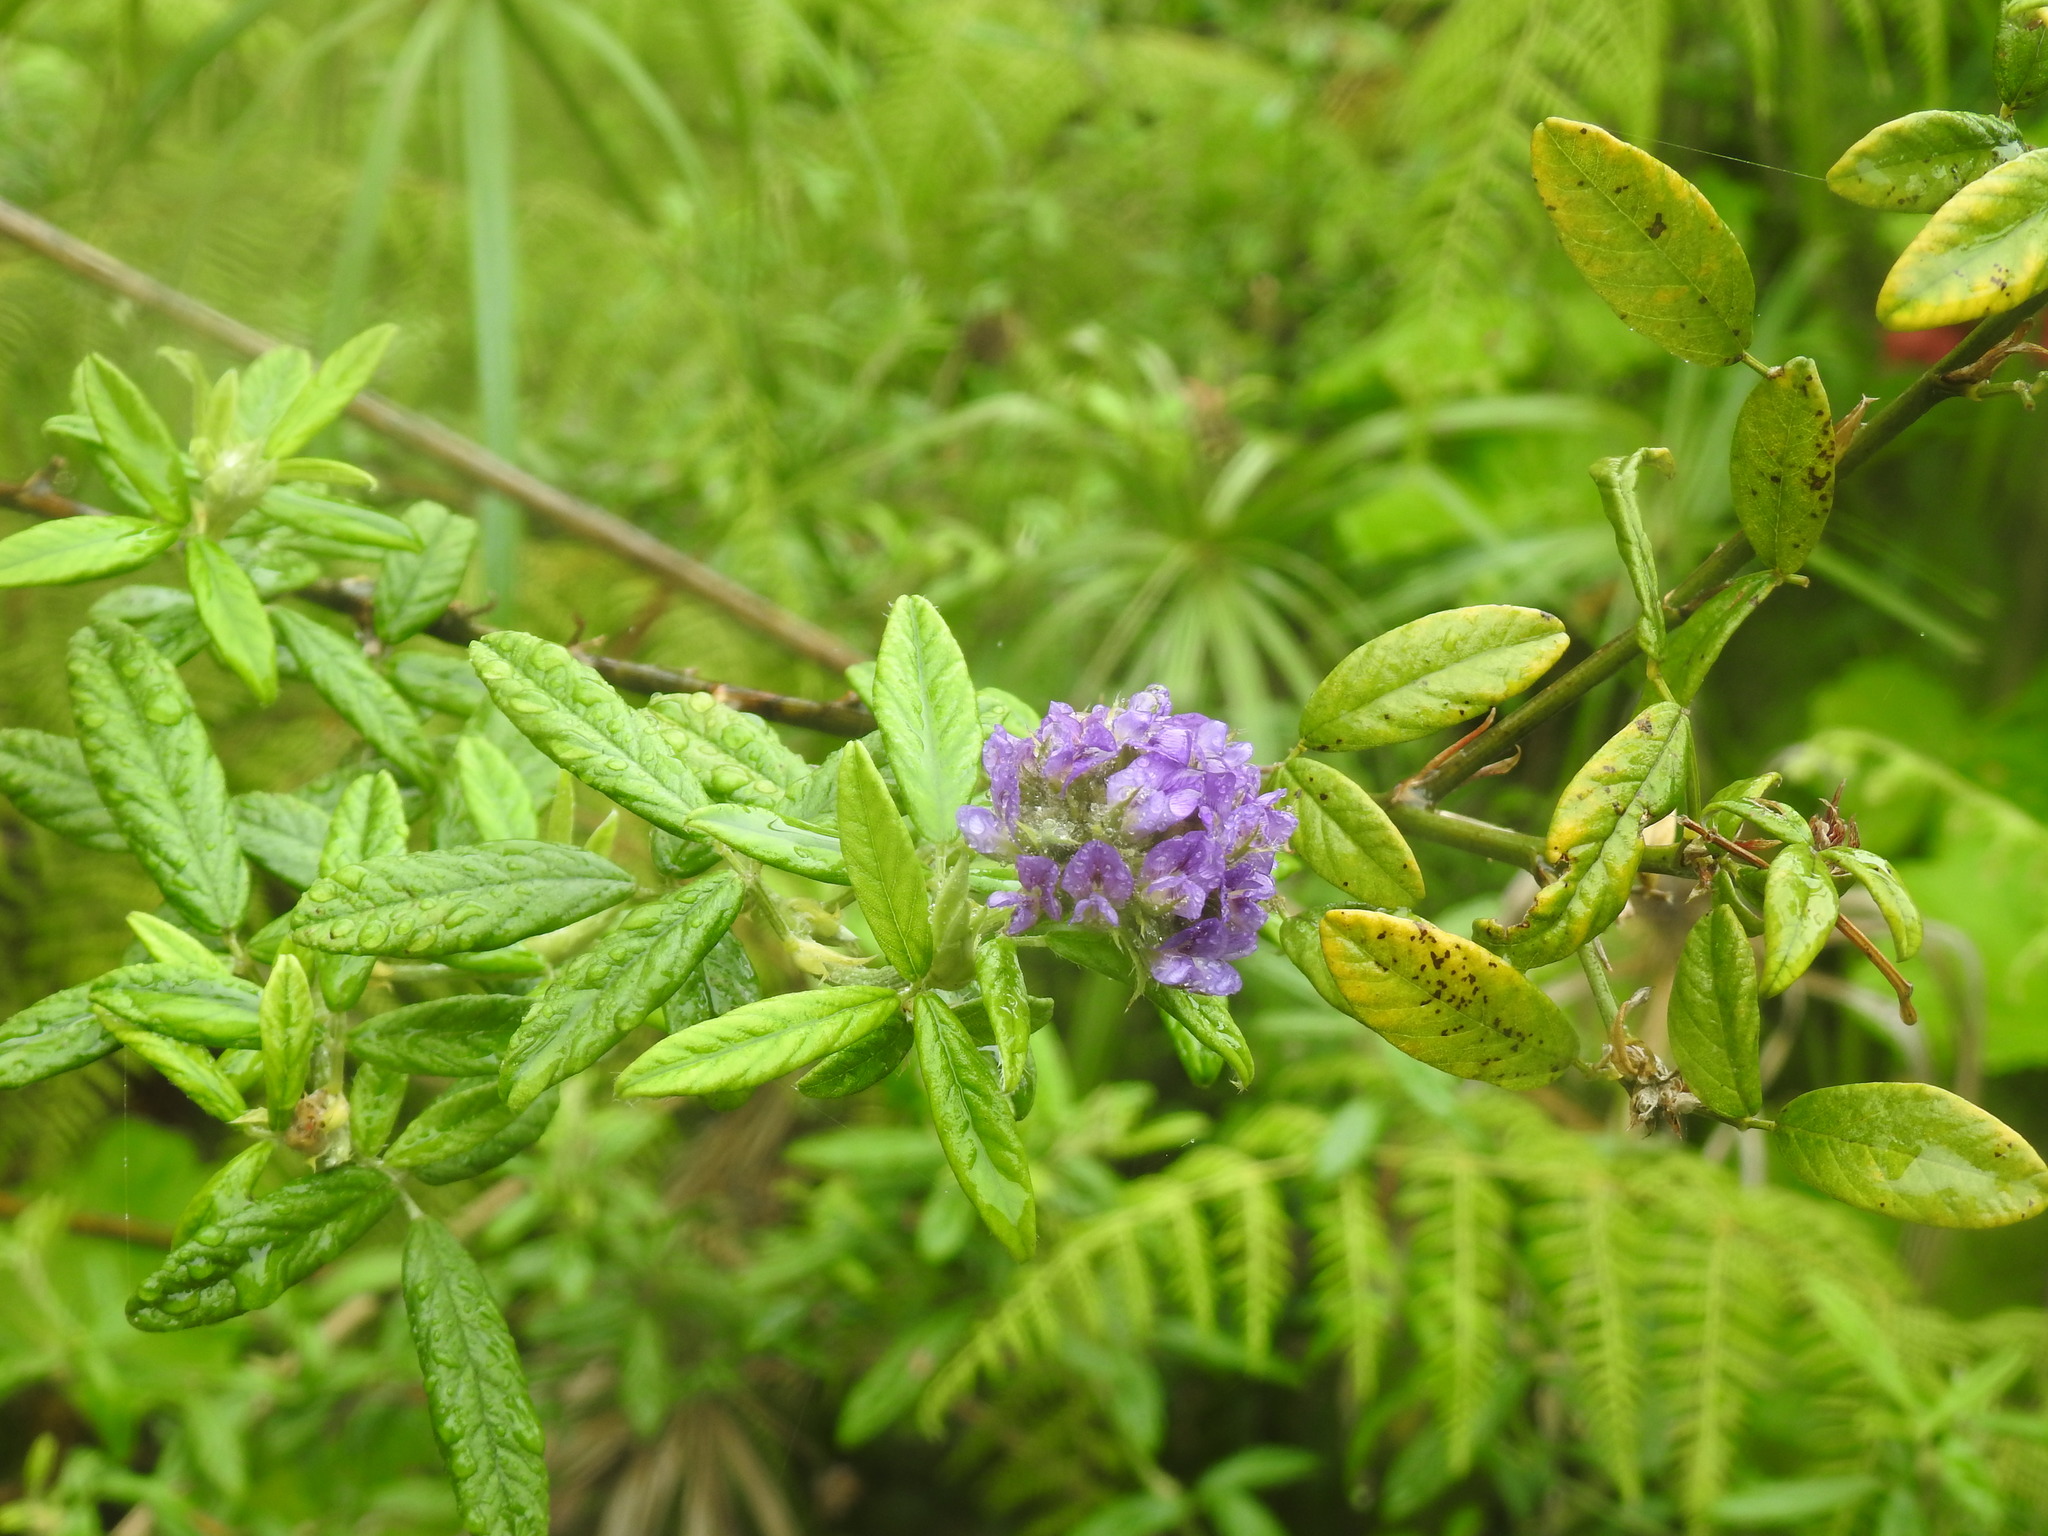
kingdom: Plantae
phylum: Tracheophyta
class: Magnoliopsida
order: Fabales
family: Fabaceae
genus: Psoralea
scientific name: Psoralea sericea
